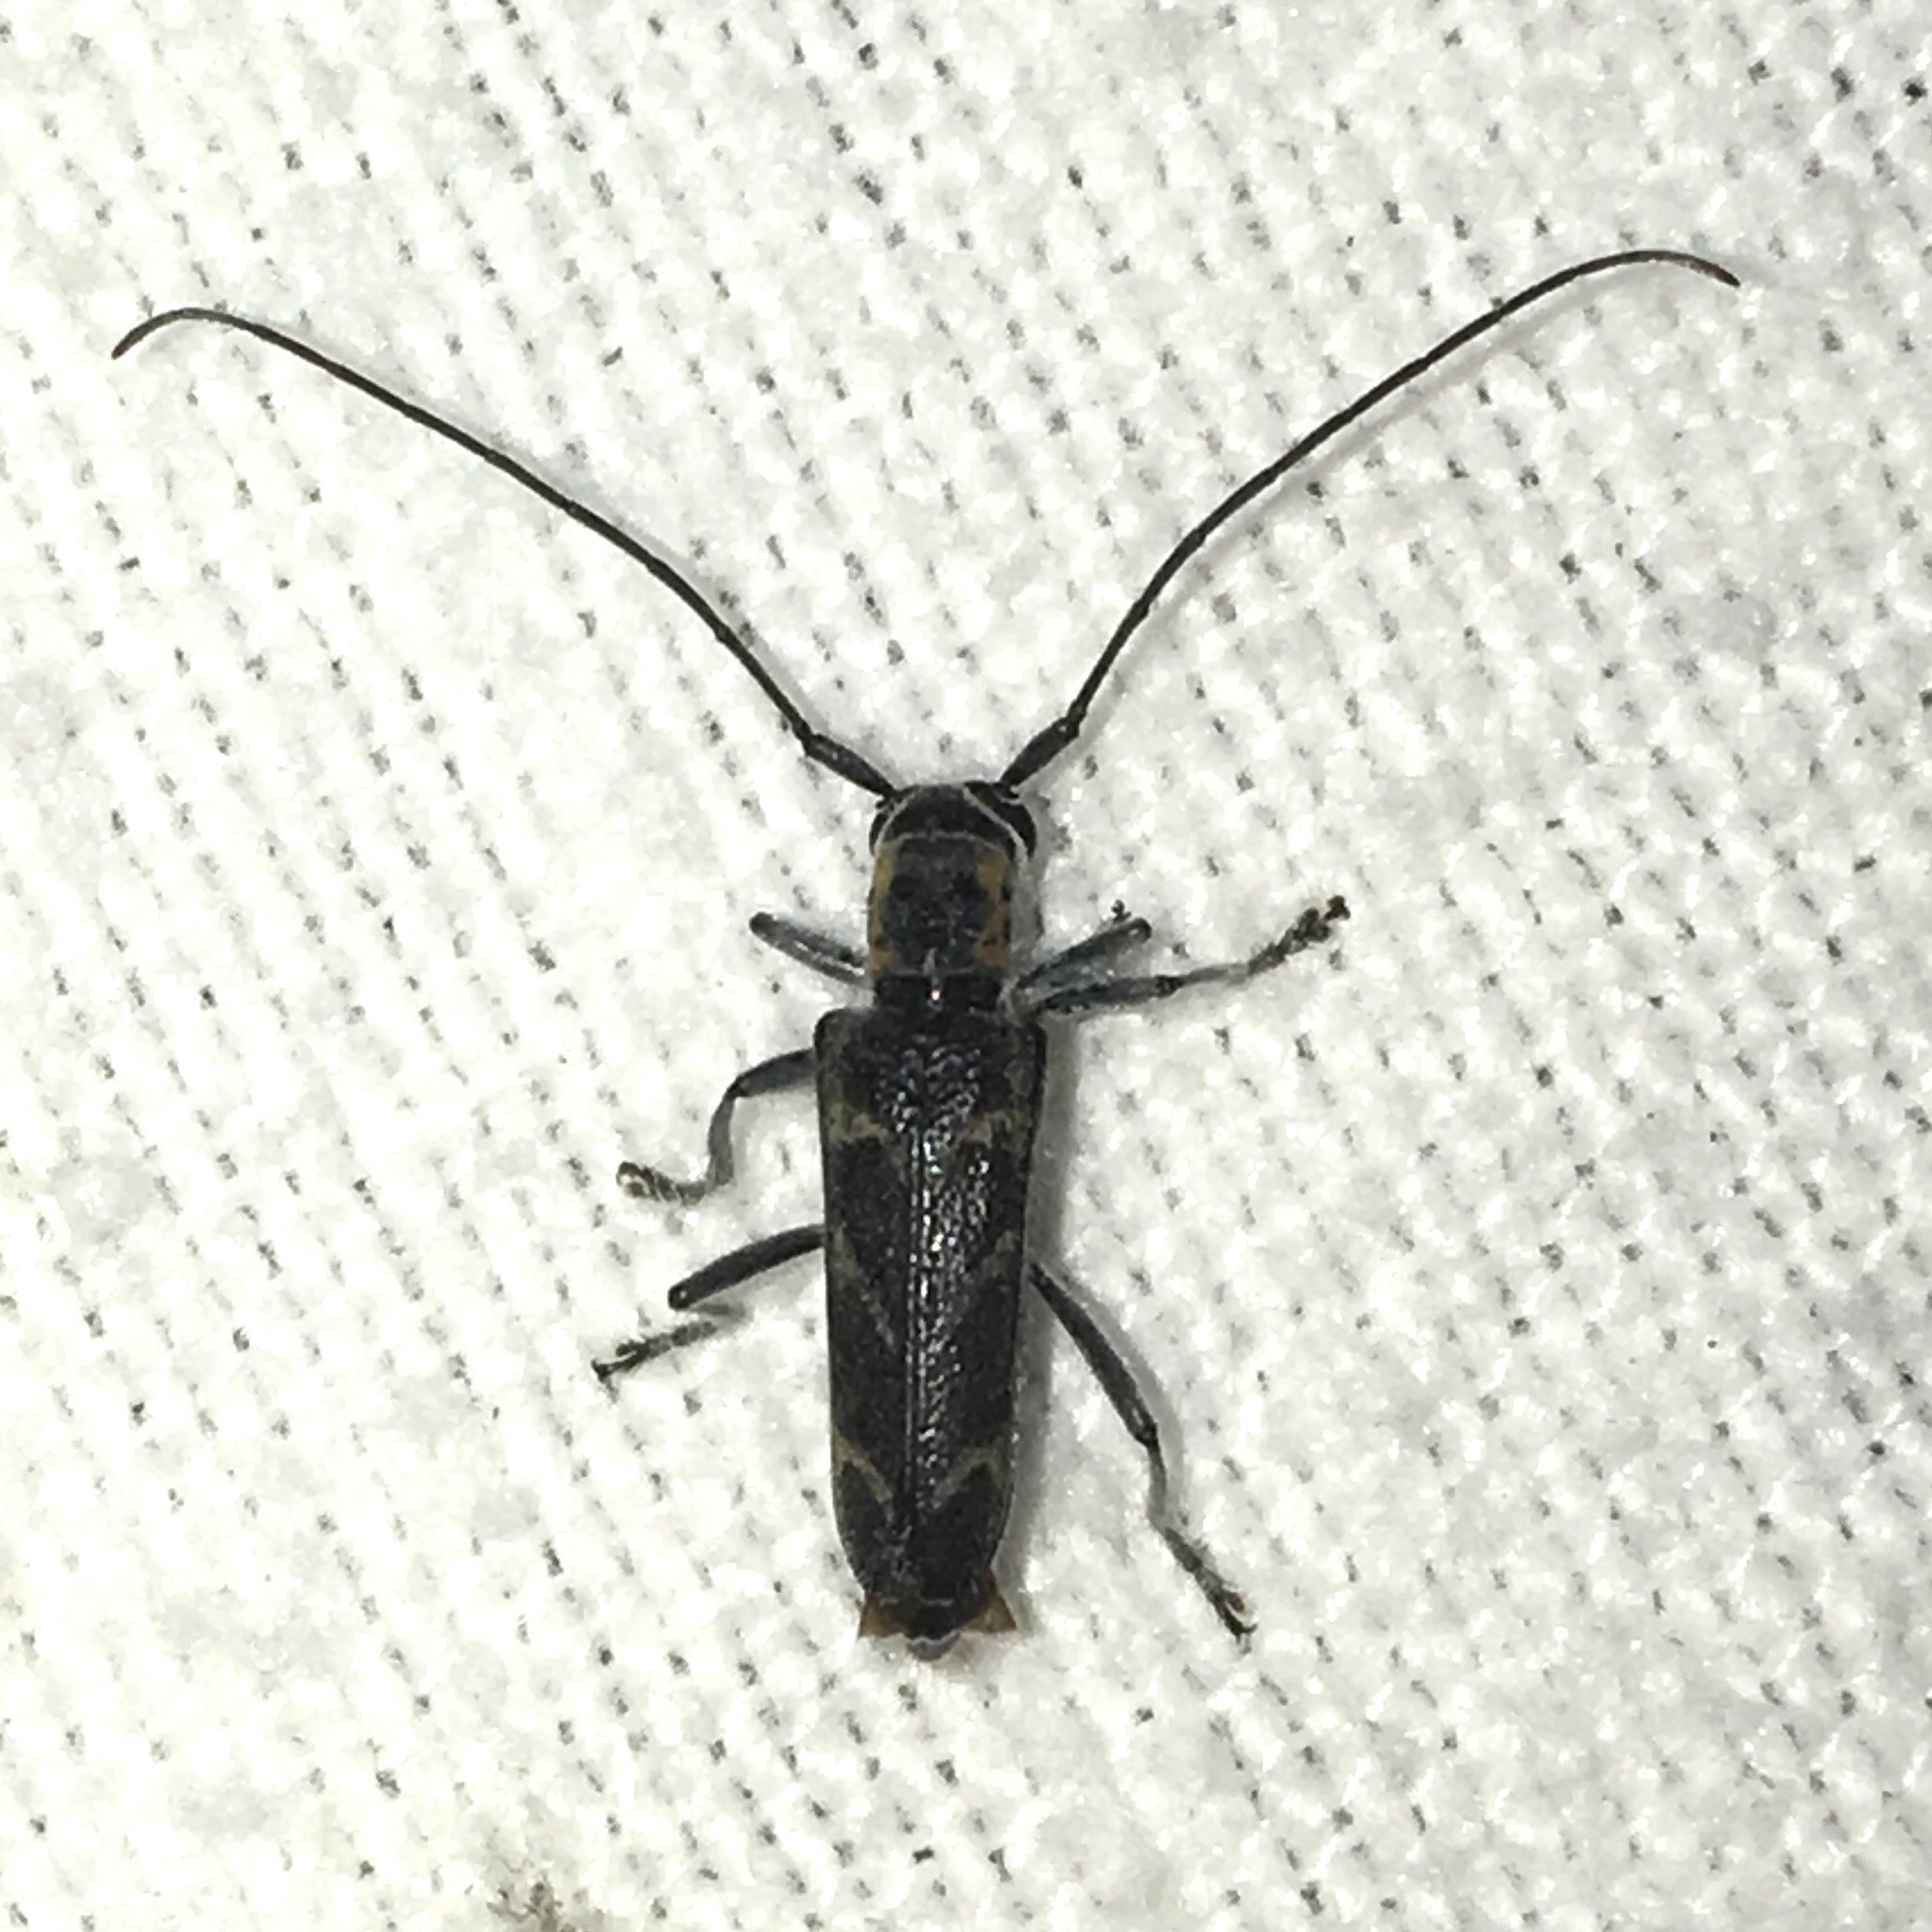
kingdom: Animalia
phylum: Arthropoda
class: Insecta
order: Coleoptera
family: Cerambycidae
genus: Saperda
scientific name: Saperda tridentata
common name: Elm borer
